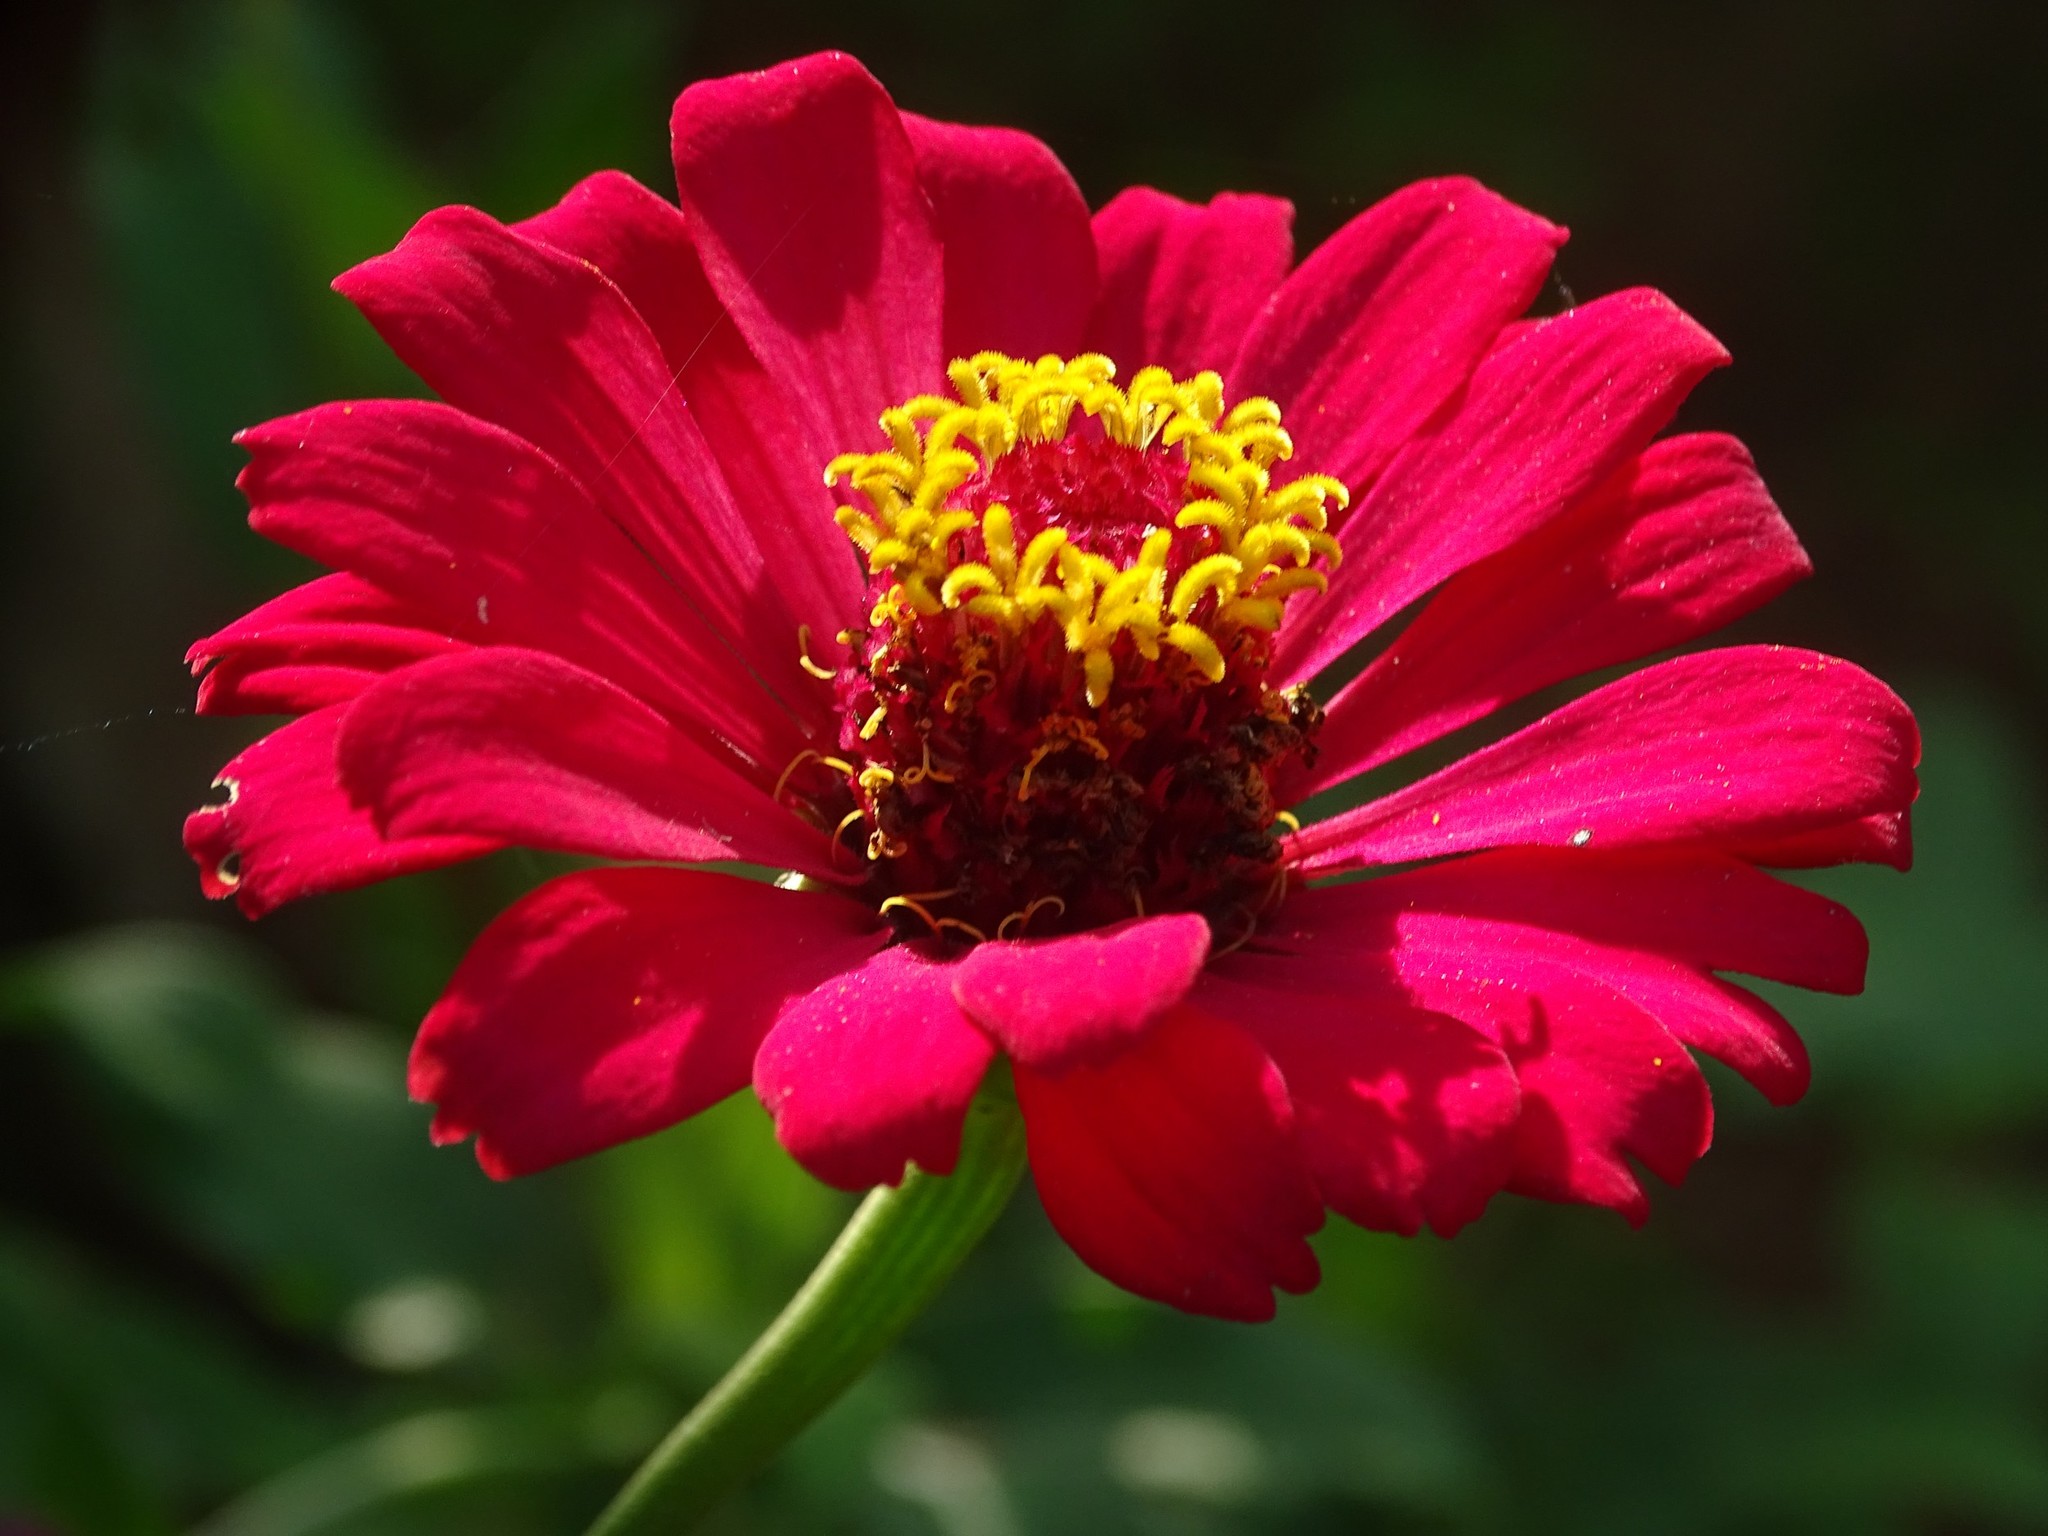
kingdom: Plantae
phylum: Tracheophyta
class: Magnoliopsida
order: Asterales
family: Asteraceae
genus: Zinnia
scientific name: Zinnia elegans
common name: Youth-and-age
